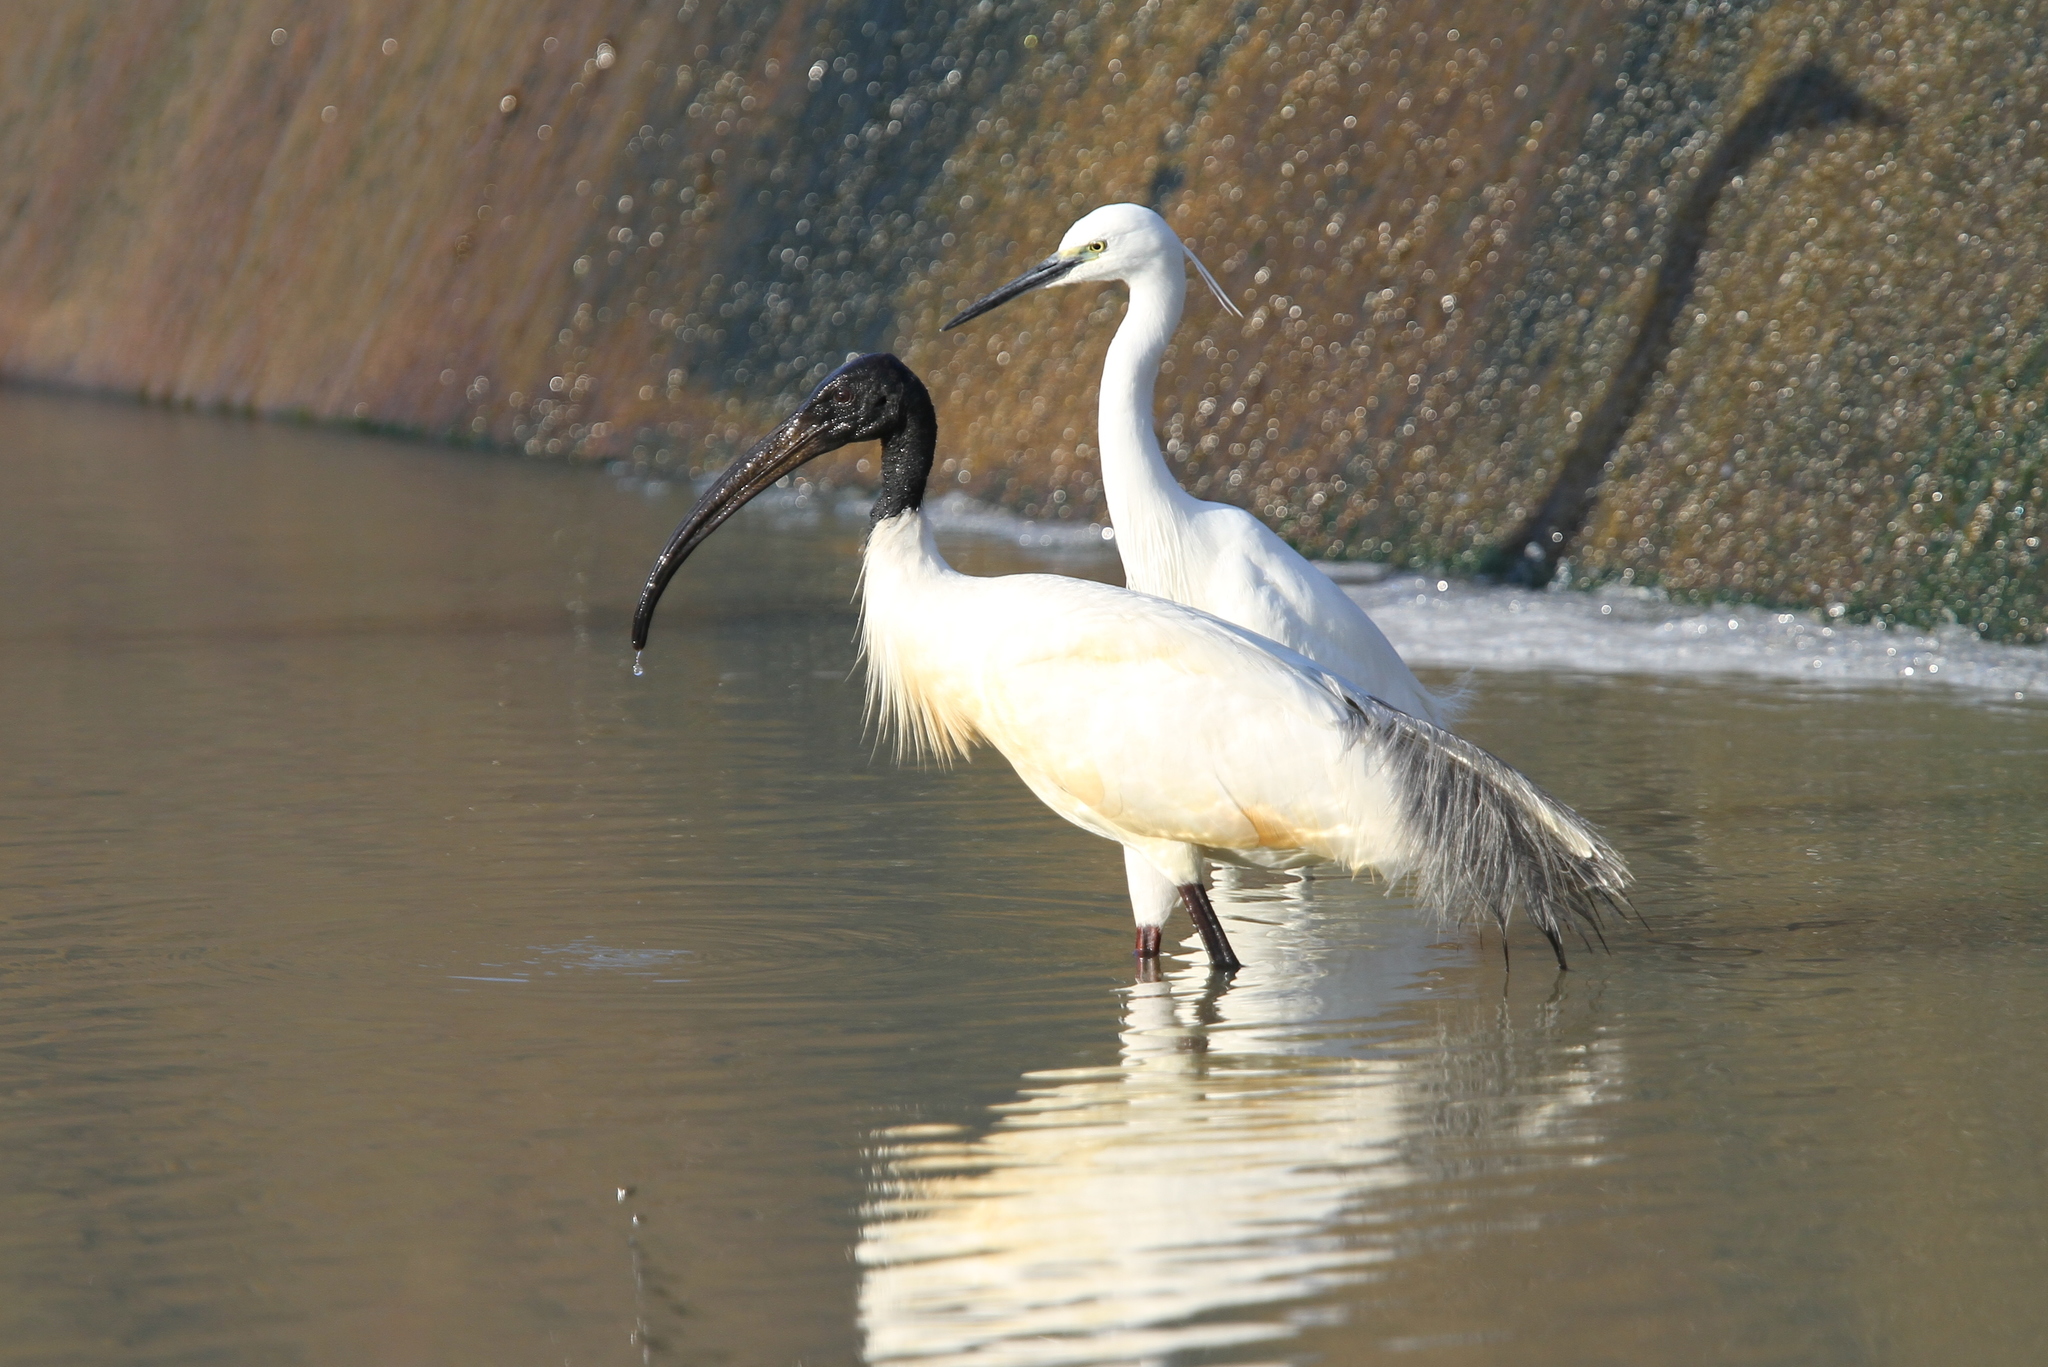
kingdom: Animalia
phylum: Chordata
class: Aves
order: Pelecaniformes
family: Threskiornithidae
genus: Threskiornis
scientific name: Threskiornis melanocephalus
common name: Black-headed ibis
